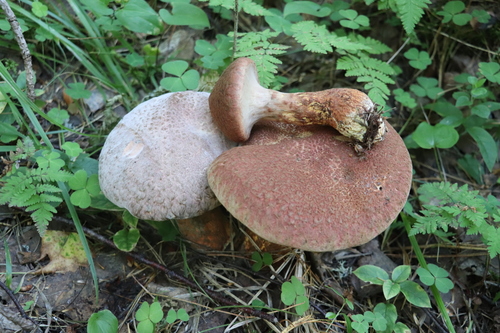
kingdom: Fungi
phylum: Basidiomycota
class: Agaricomycetes
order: Boletales
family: Suillaceae
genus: Suillus
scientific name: Suillus spraguei
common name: Painted suillus
